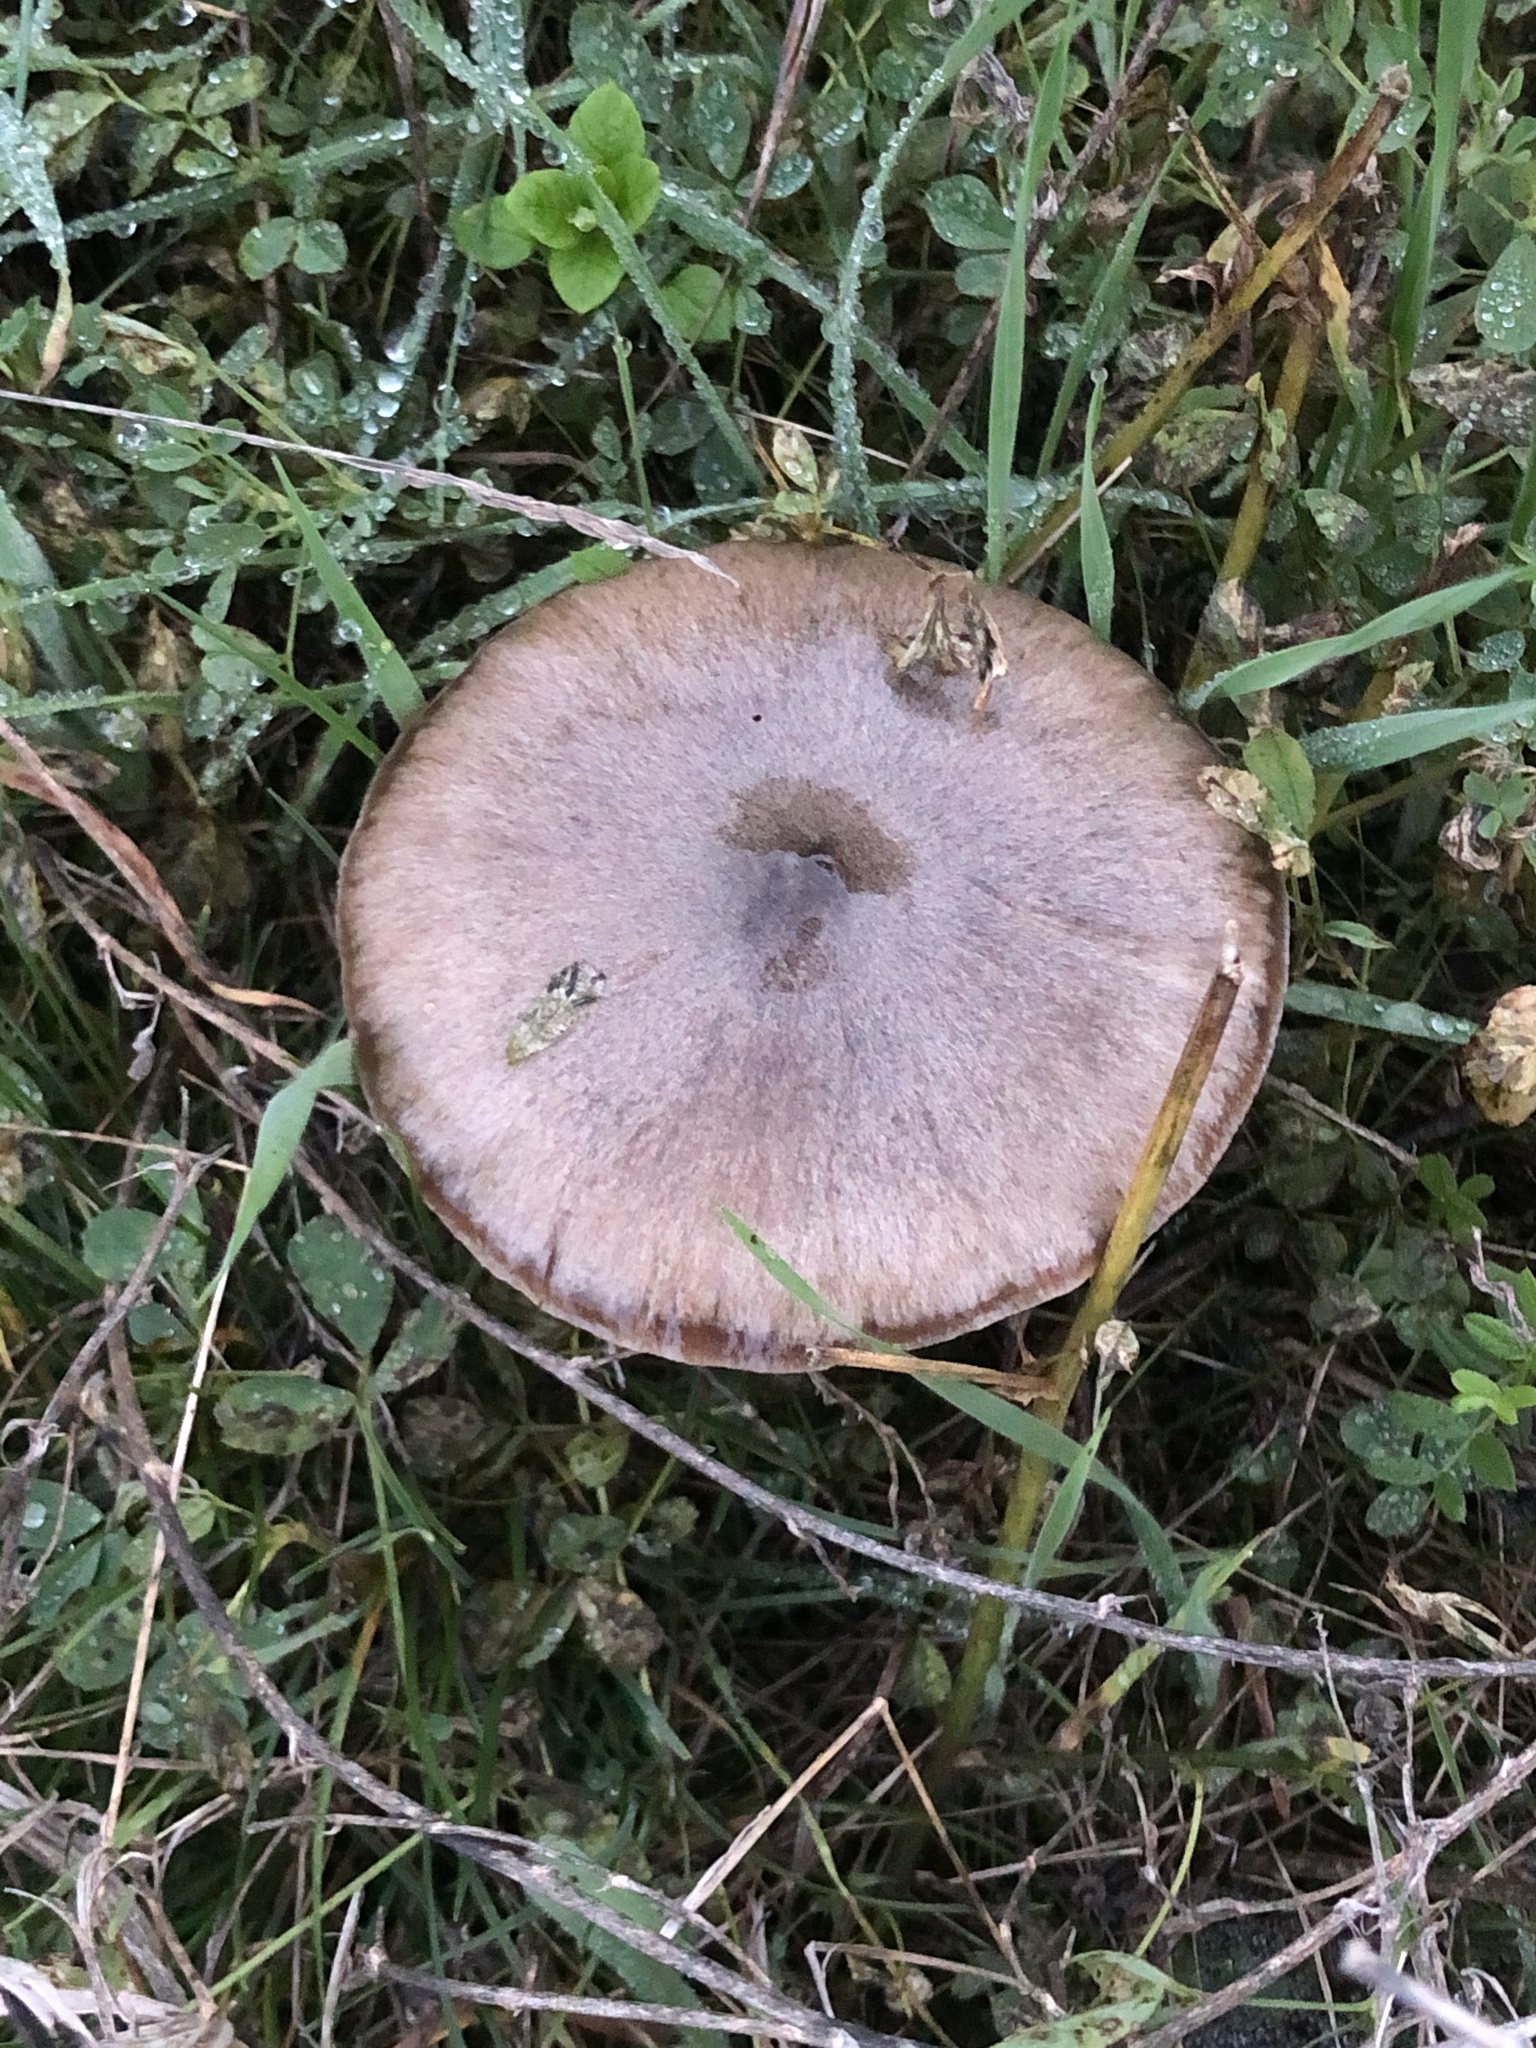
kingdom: Fungi
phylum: Basidiomycota
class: Agaricomycetes
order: Agaricales
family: Pluteaceae
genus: Volvopluteus
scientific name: Volvopluteus gloiocephalus
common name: Stubble rosegill
